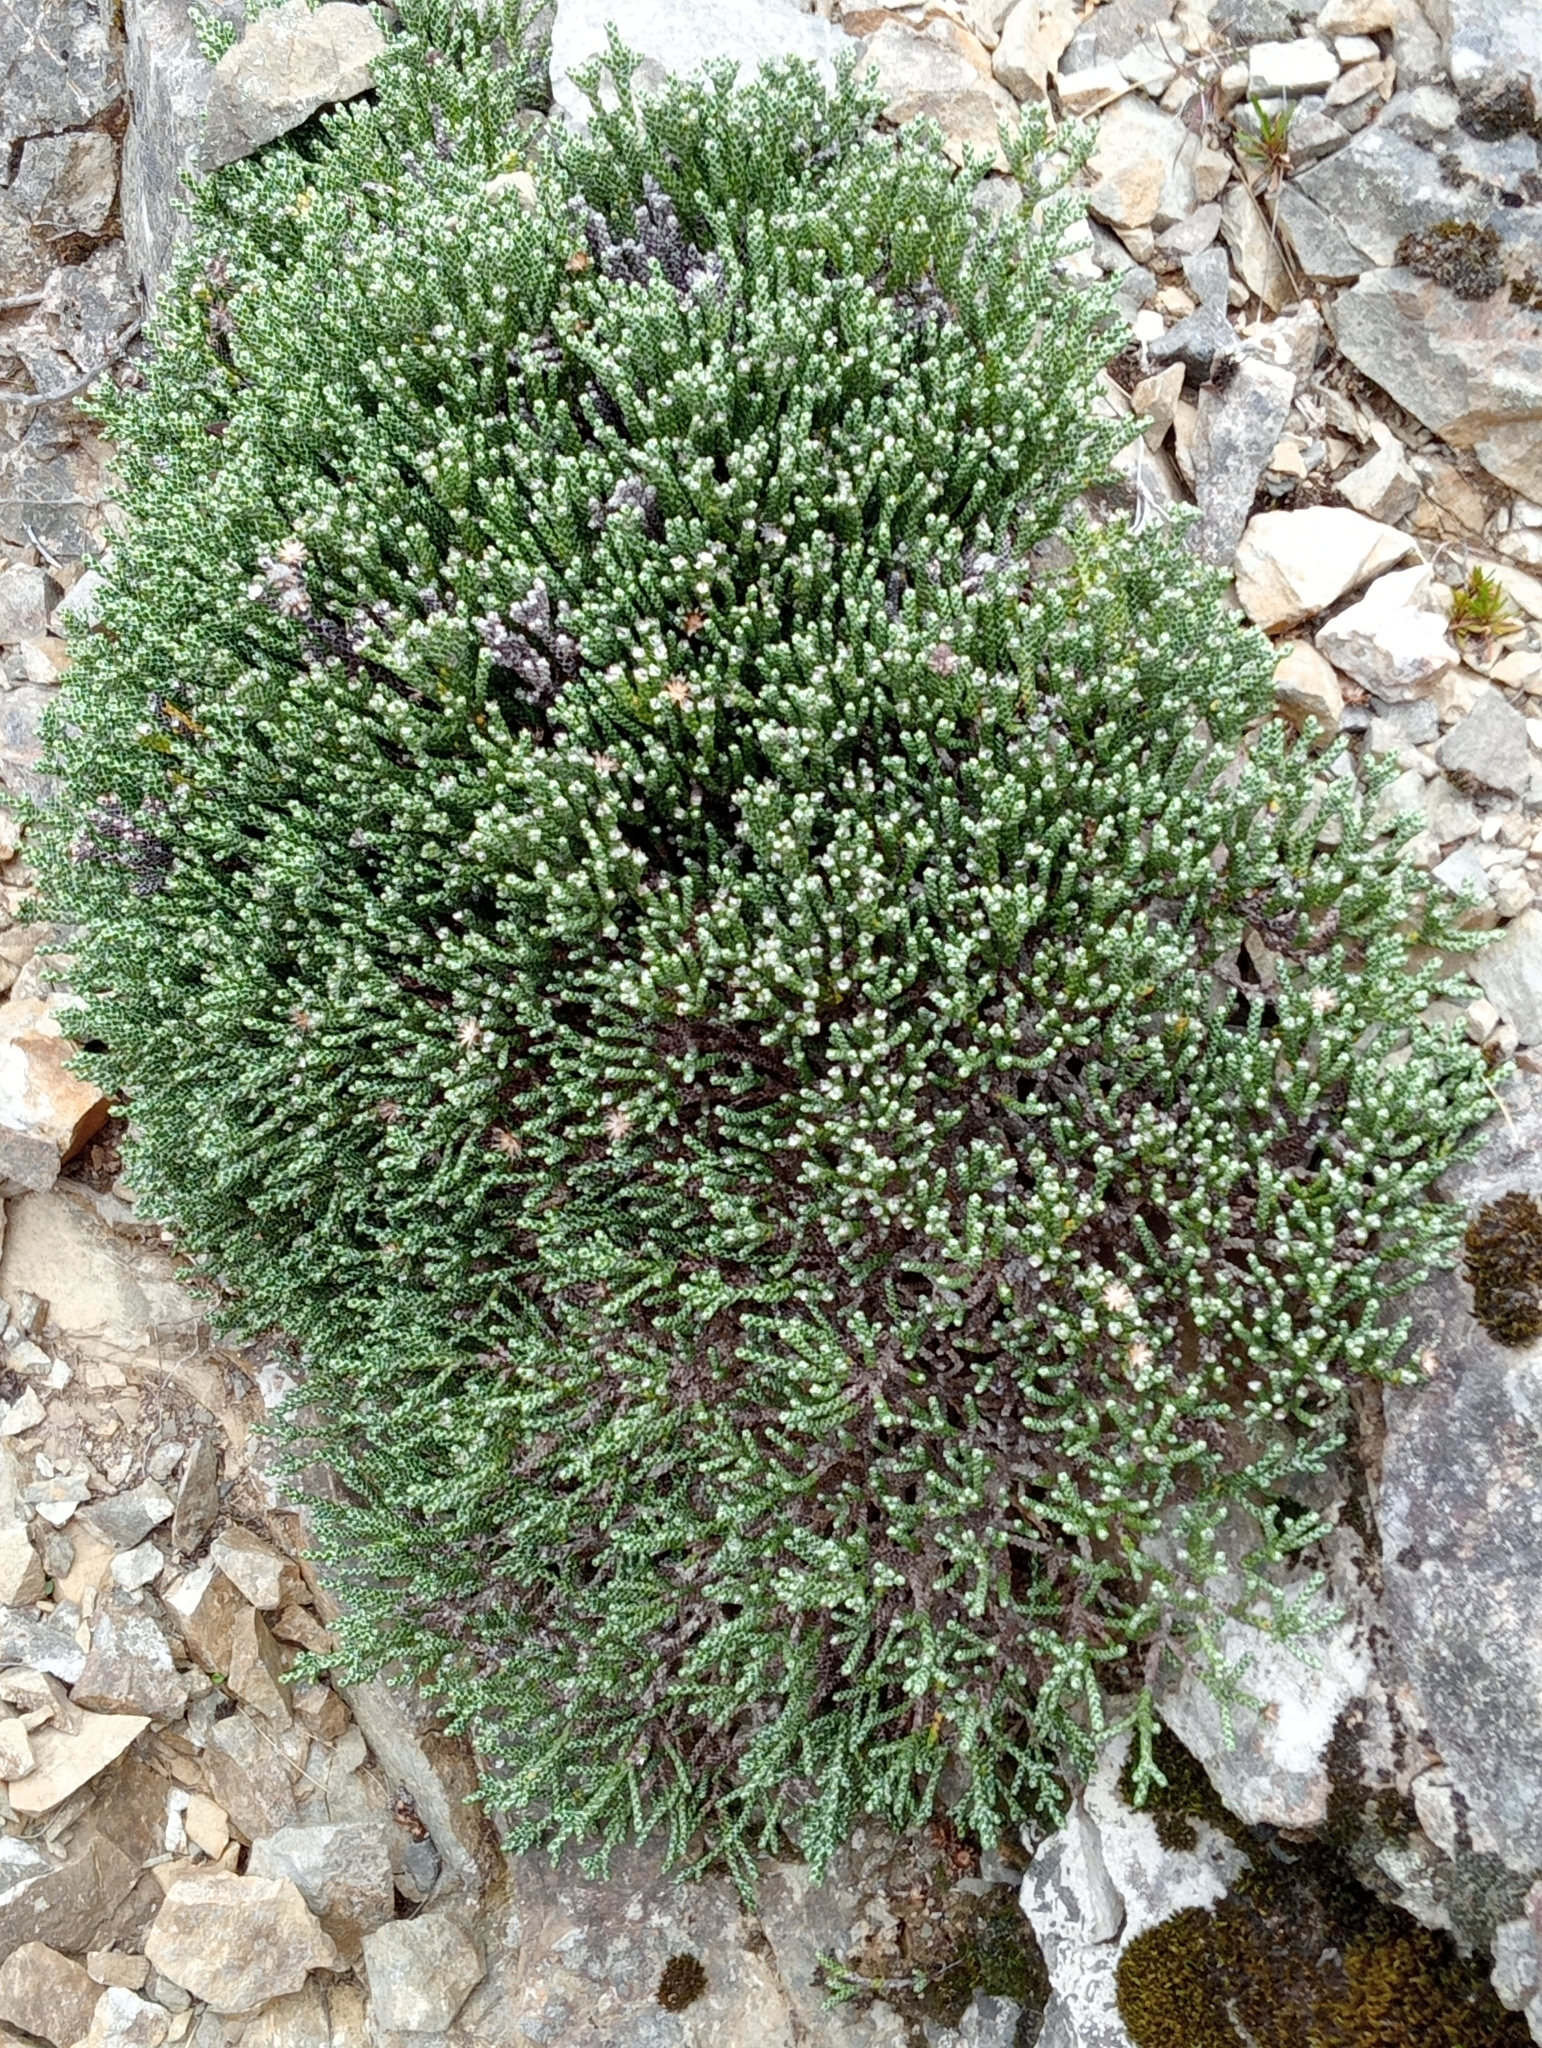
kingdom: Plantae
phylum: Tracheophyta
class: Magnoliopsida
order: Asterales
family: Asteraceae
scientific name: Asteraceae
